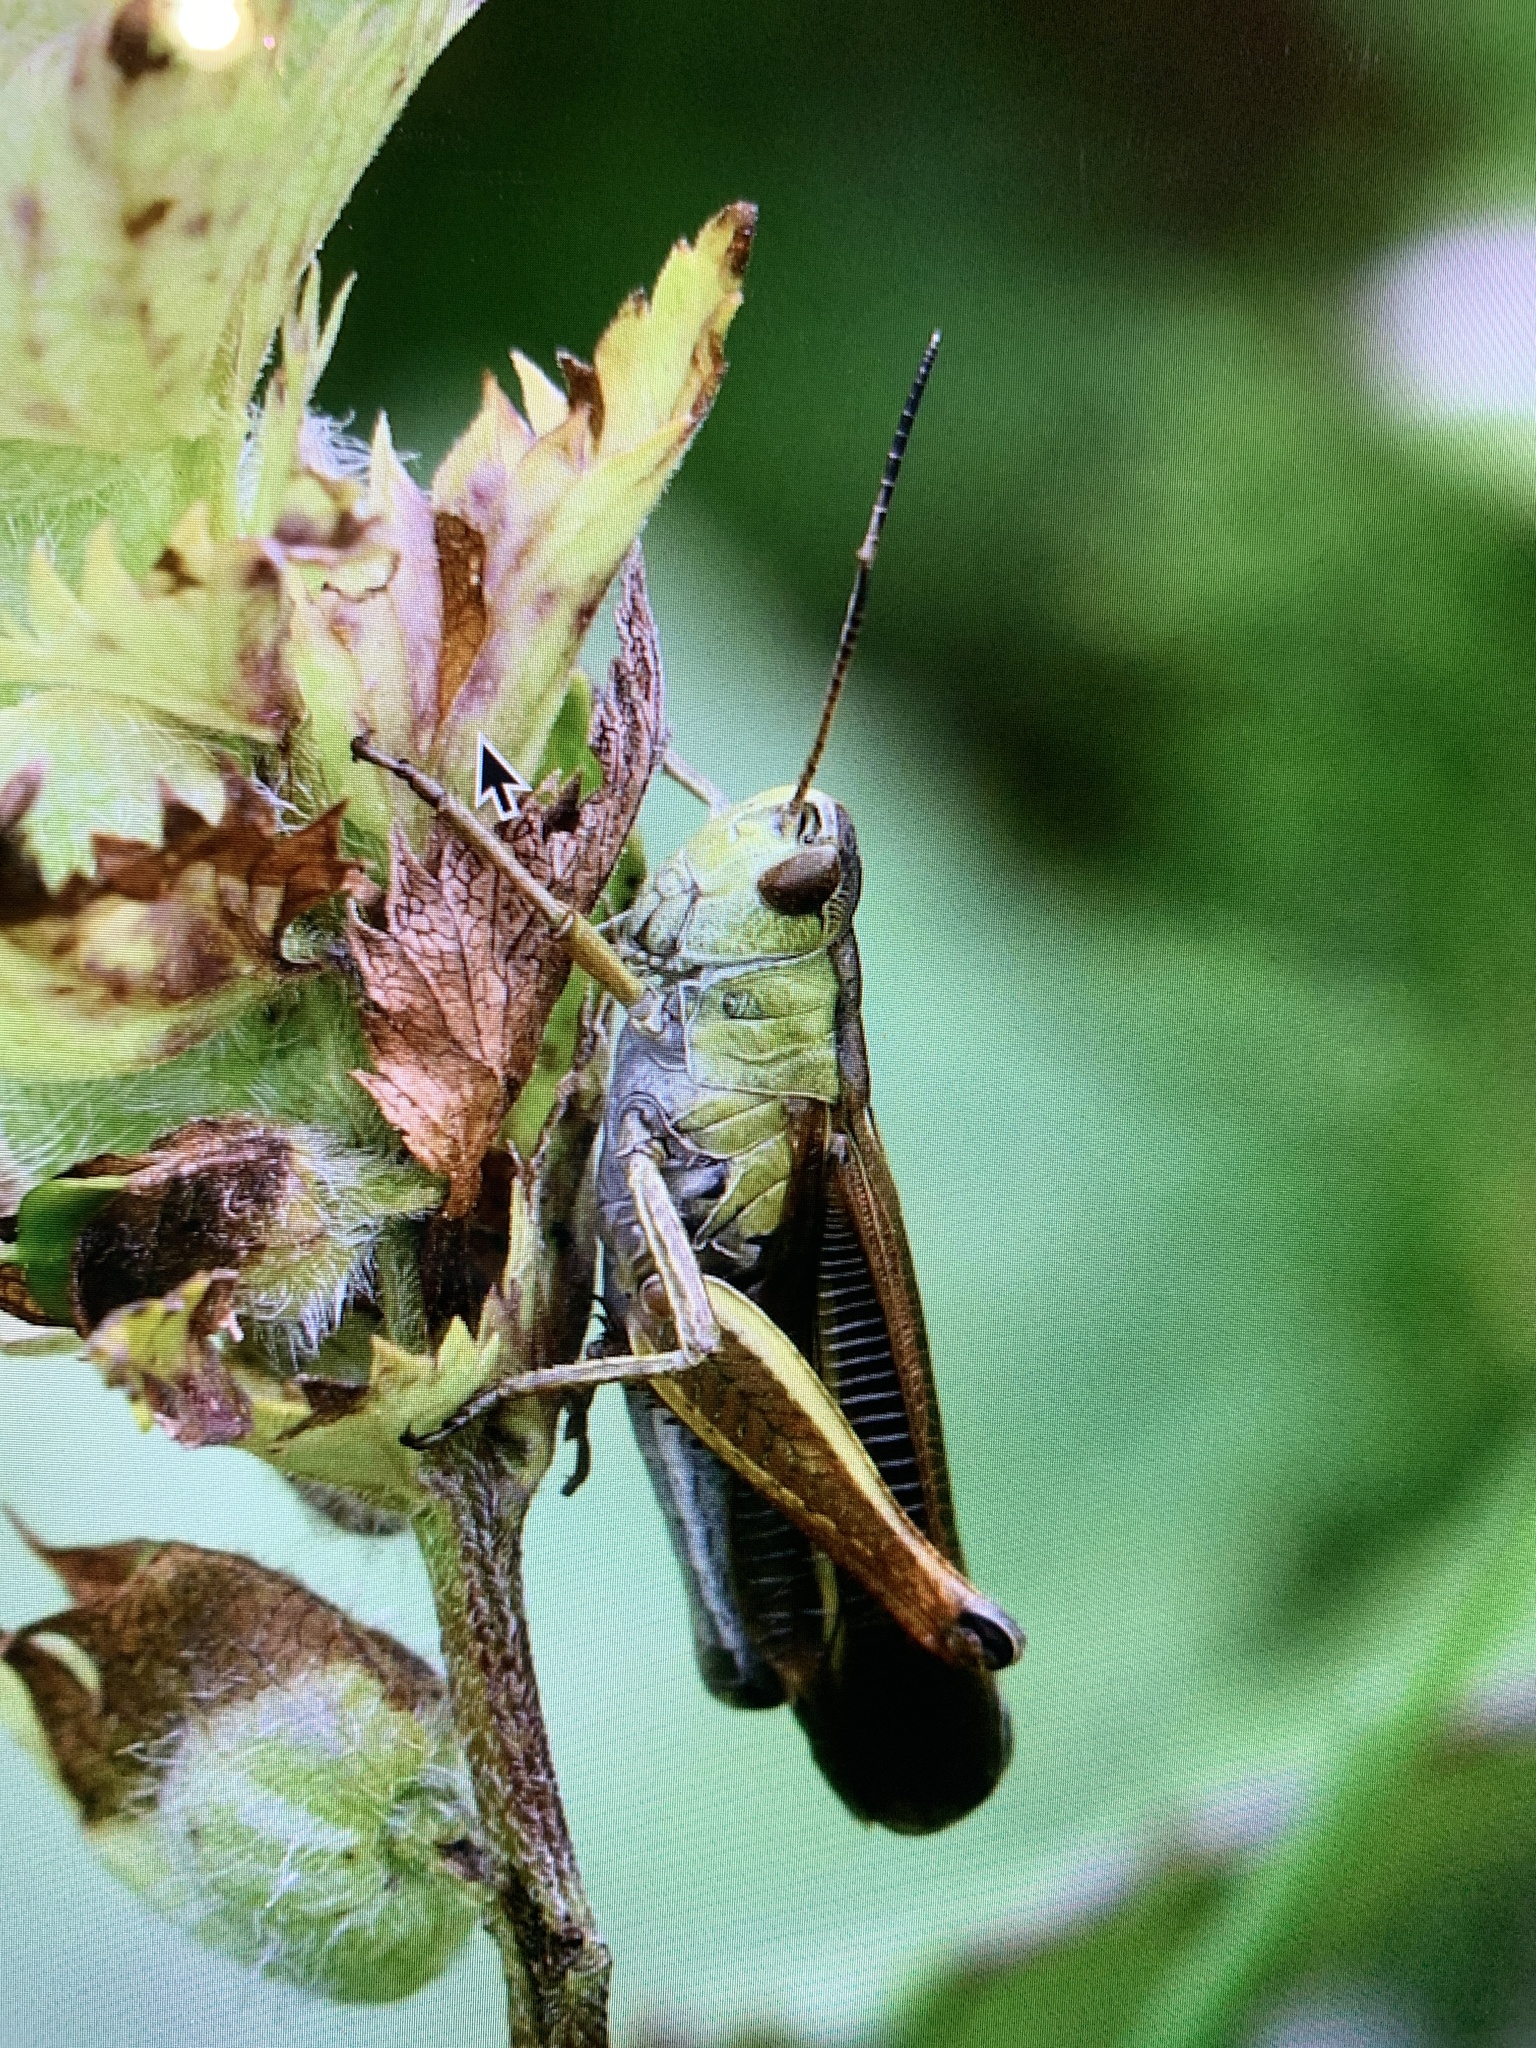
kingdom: Animalia
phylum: Arthropoda
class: Insecta
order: Orthoptera
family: Acrididae
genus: Stauroderus
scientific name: Stauroderus scalaris
